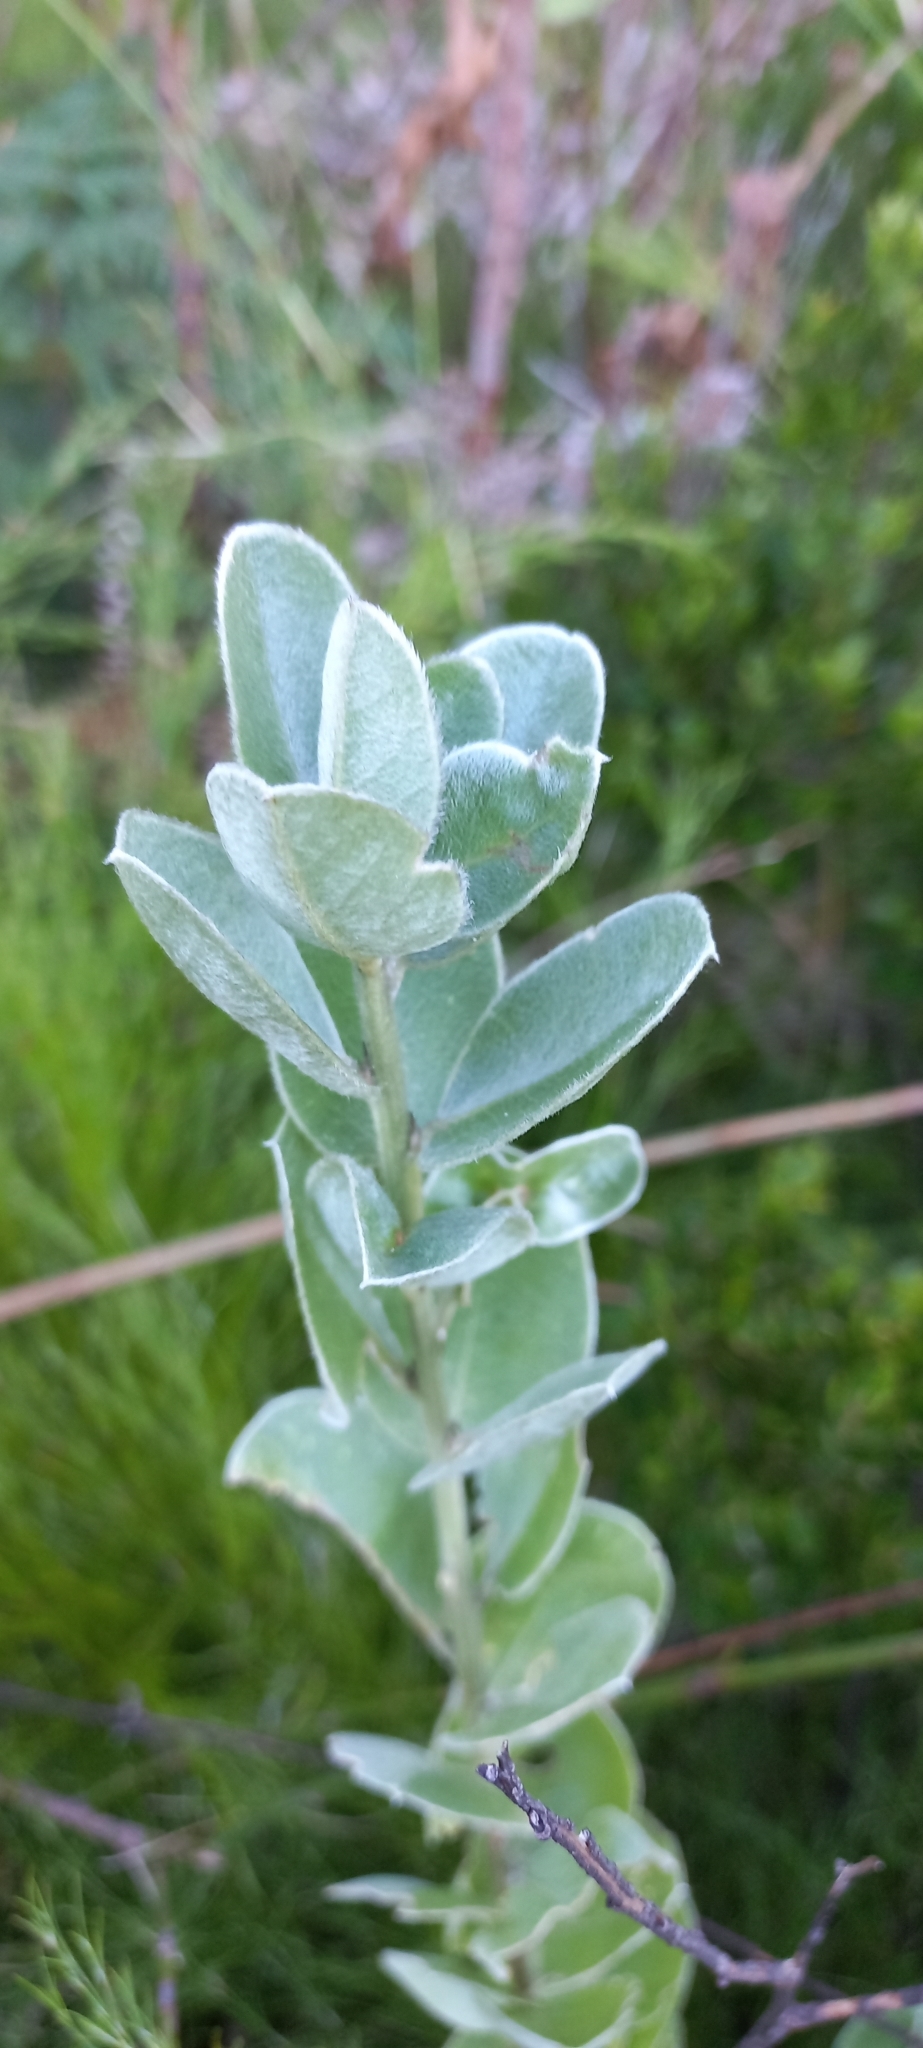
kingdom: Plantae
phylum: Tracheophyta
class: Magnoliopsida
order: Fabales
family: Fabaceae
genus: Podalyria
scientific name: Podalyria calyptrata
